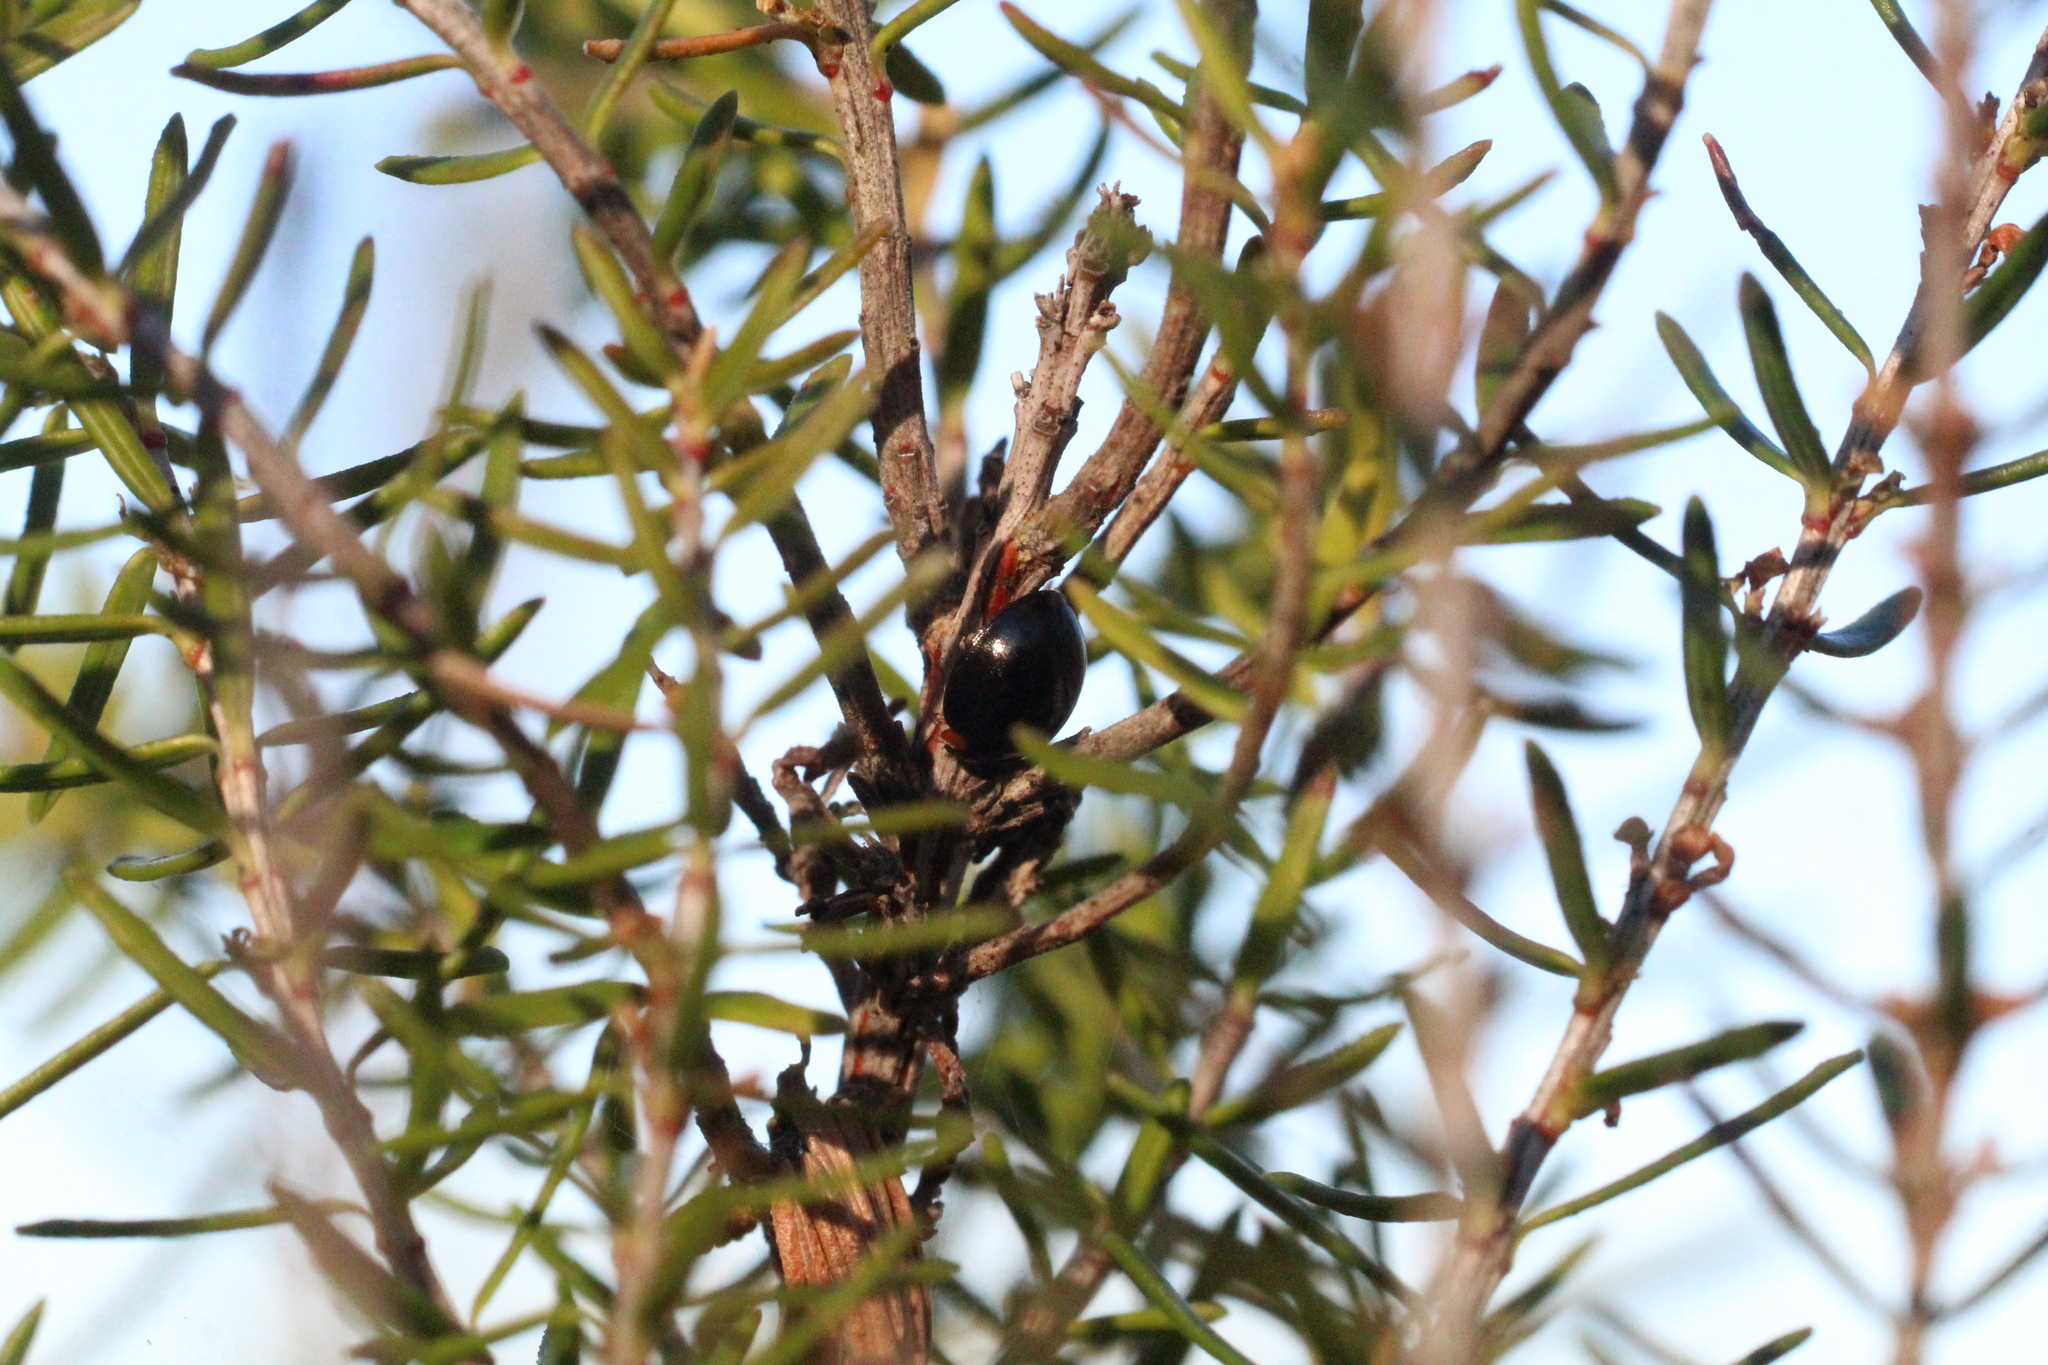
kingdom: Animalia
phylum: Arthropoda
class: Insecta
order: Coleoptera
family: Coccinellidae
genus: Parexochomus
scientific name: Parexochomus nigromaculatus
